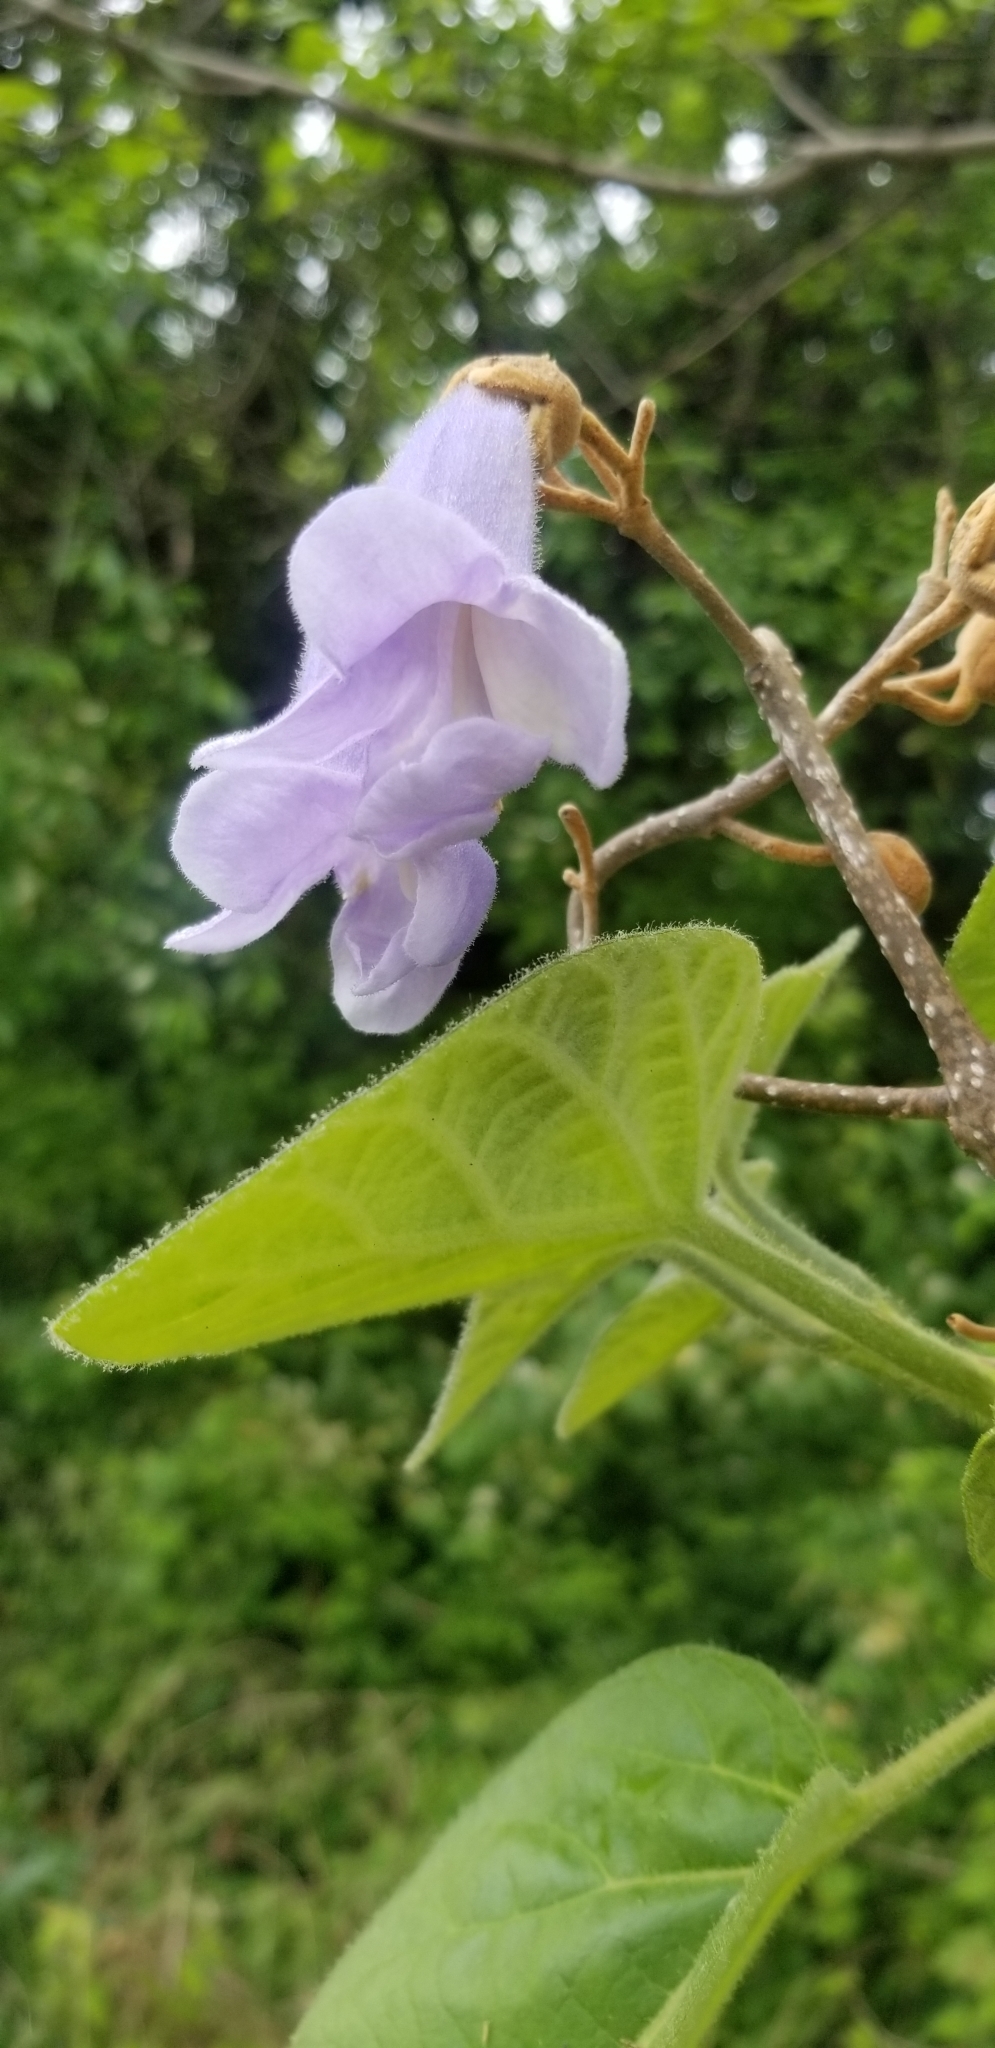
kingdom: Plantae
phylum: Tracheophyta
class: Magnoliopsida
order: Lamiales
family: Paulowniaceae
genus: Paulownia
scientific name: Paulownia tomentosa
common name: Foxglove-tree
